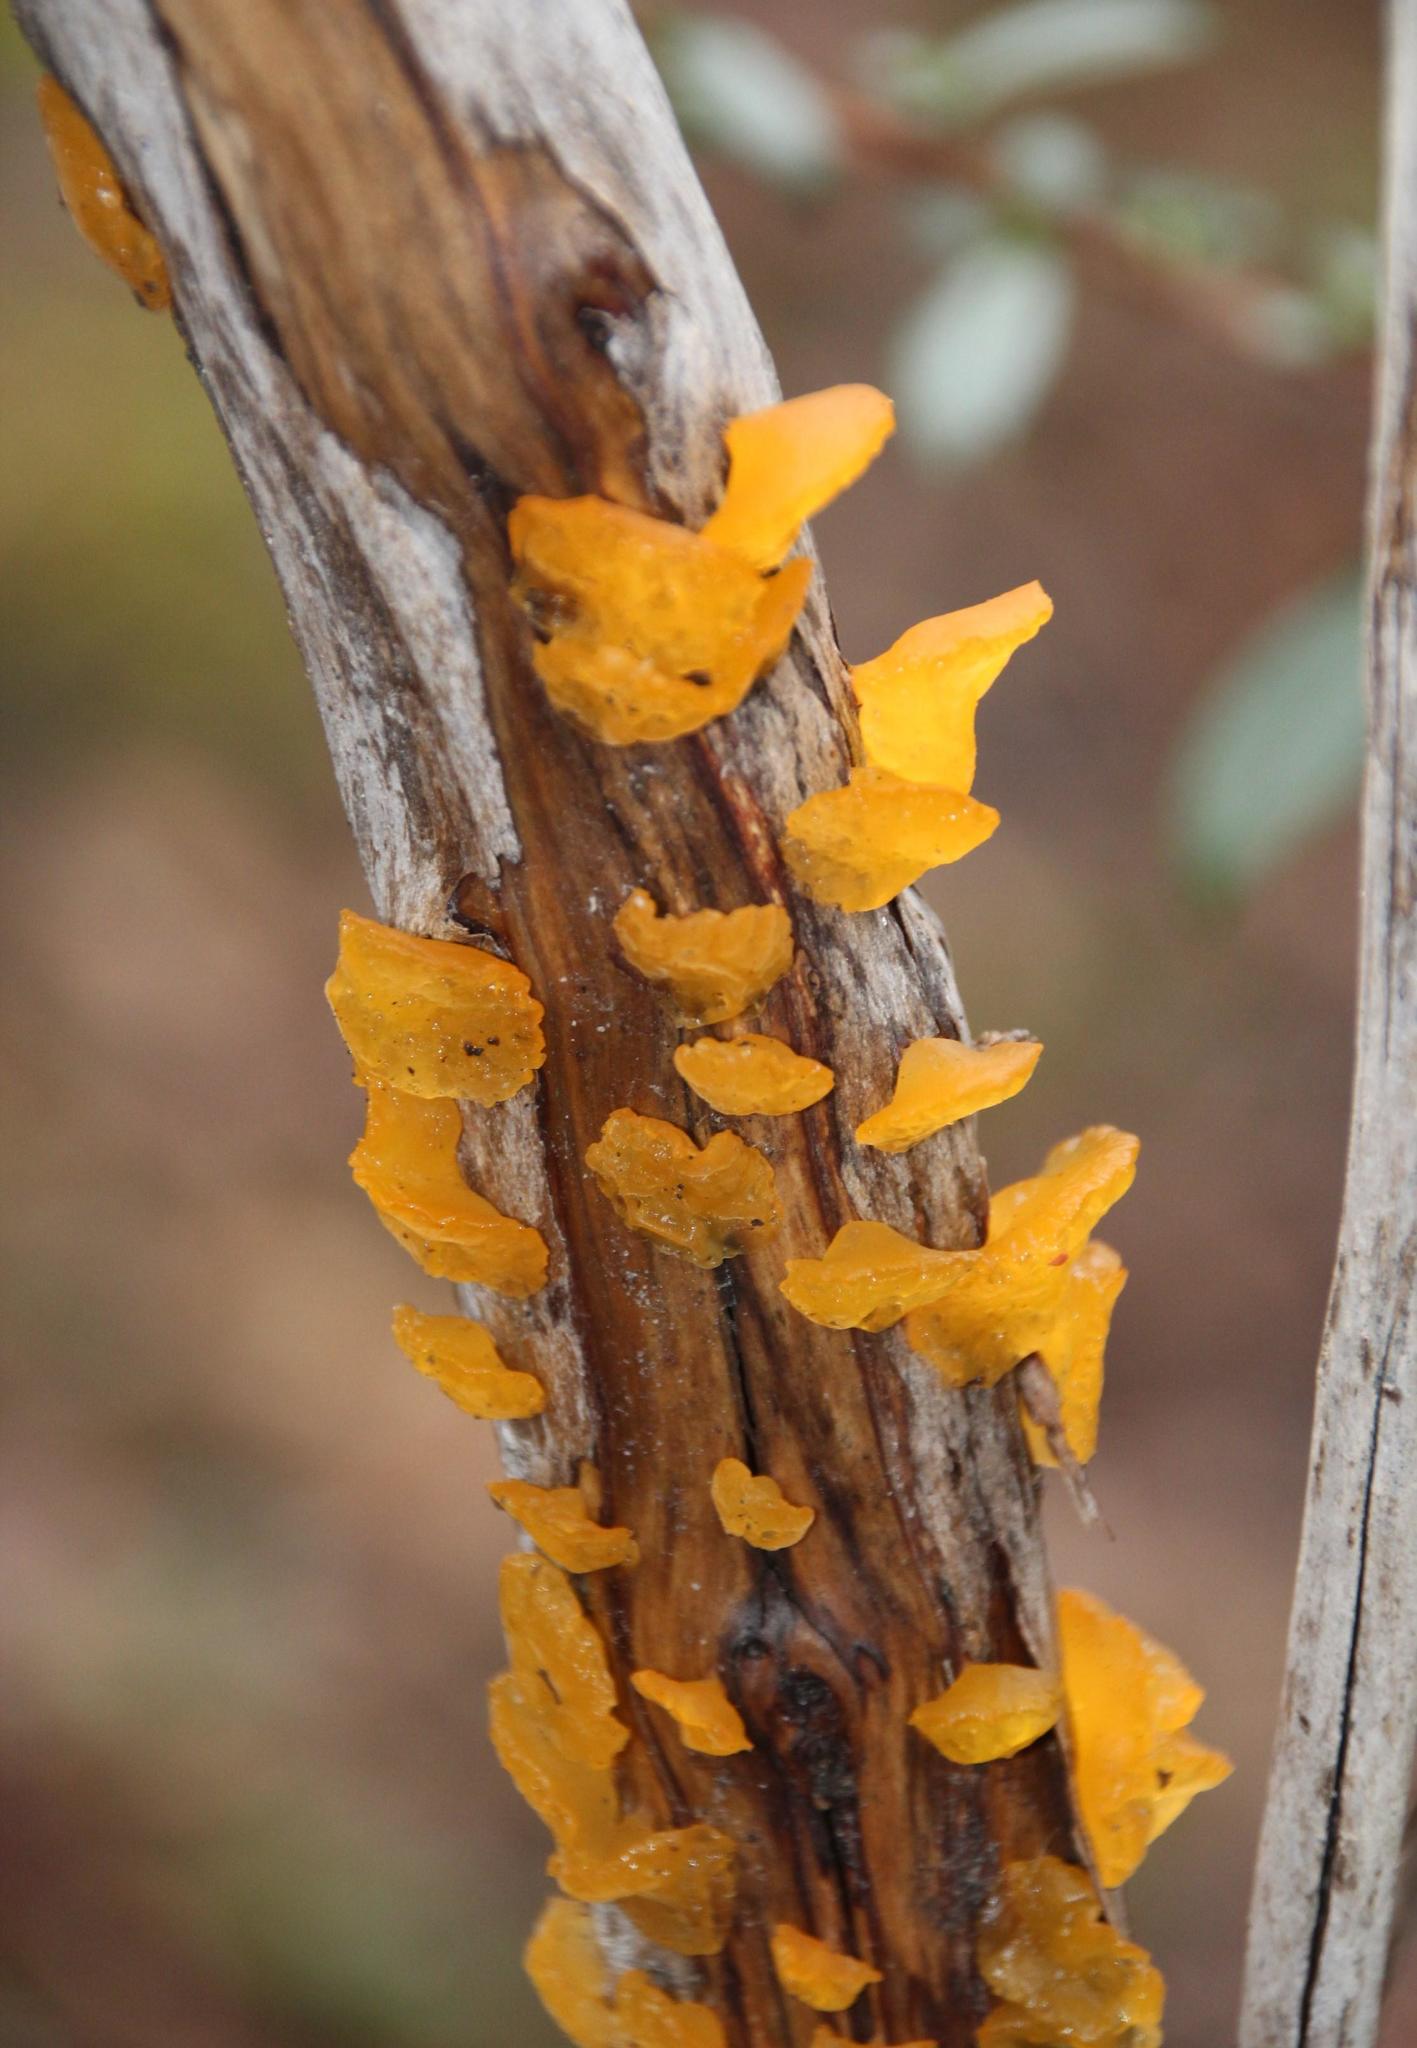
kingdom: Fungi
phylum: Basidiomycota
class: Dacrymycetes
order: Dacrymycetales
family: Dacrymycetaceae
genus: Guepiniopsis
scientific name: Guepiniopsis alpina
